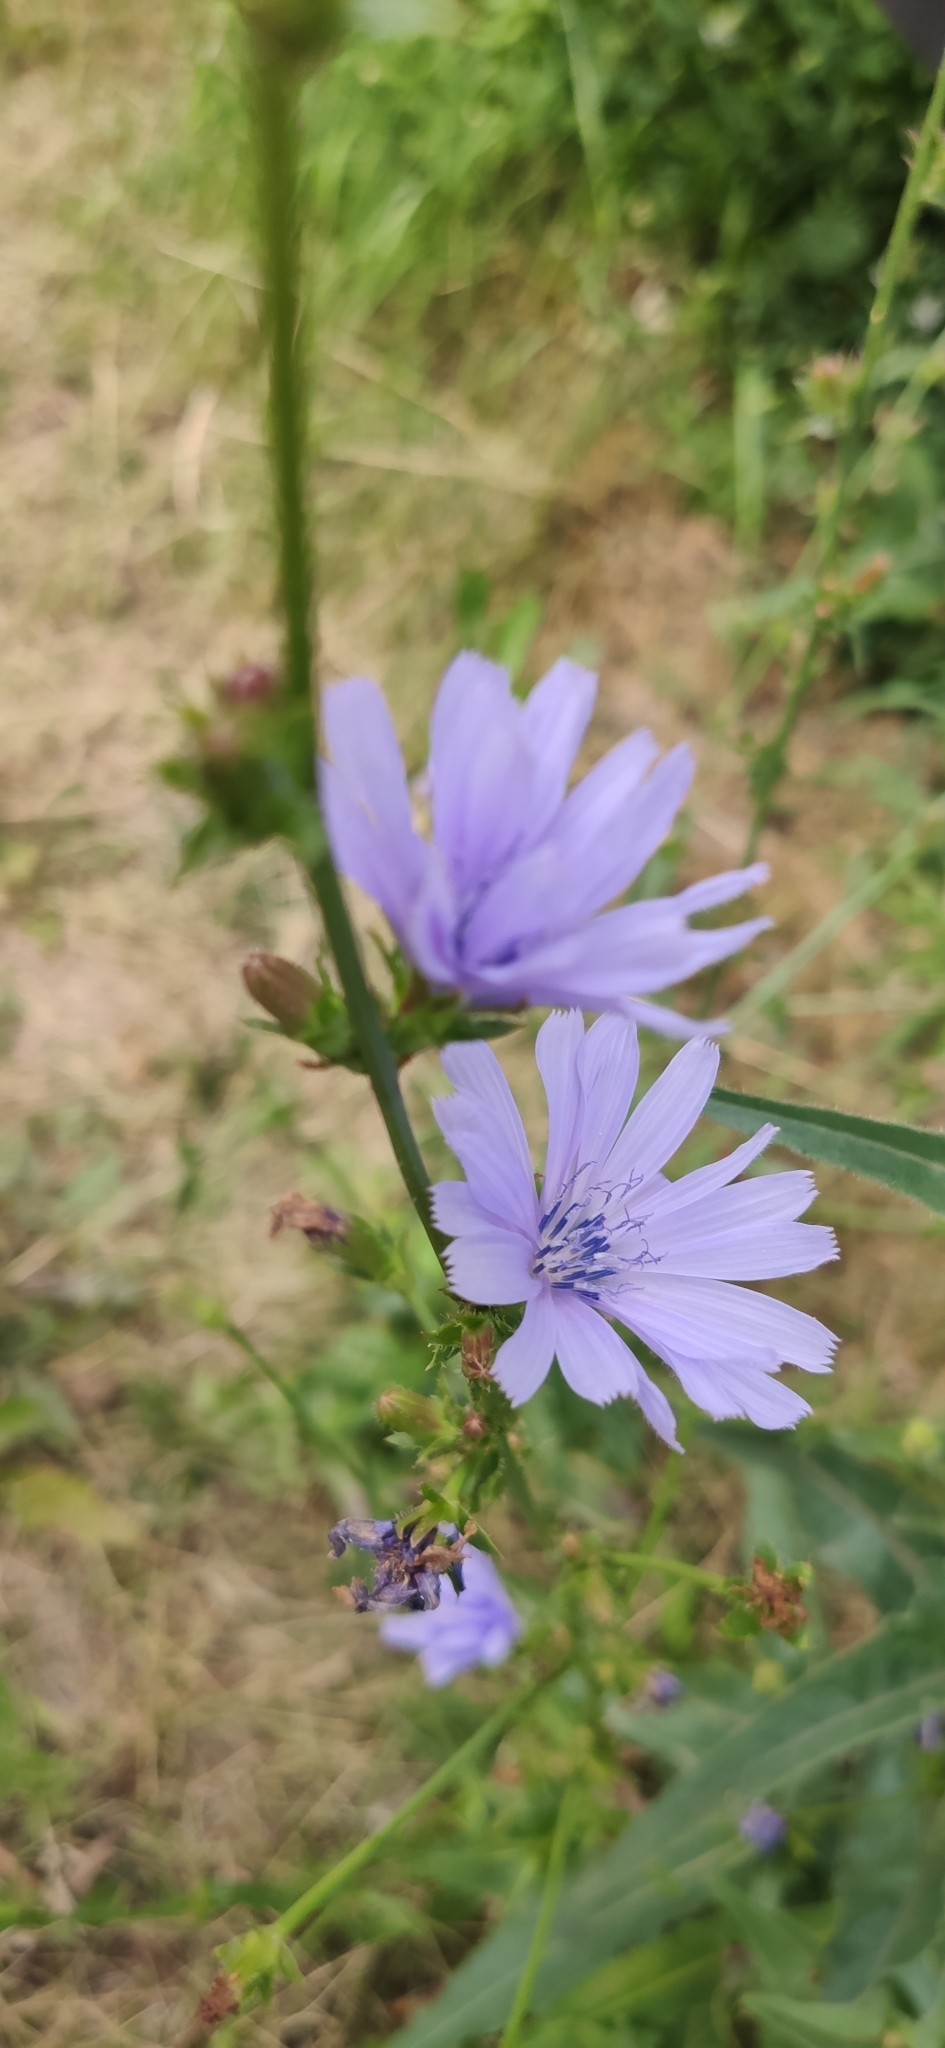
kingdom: Plantae
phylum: Tracheophyta
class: Magnoliopsida
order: Asterales
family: Asteraceae
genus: Cichorium
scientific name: Cichorium intybus
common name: Chicory
